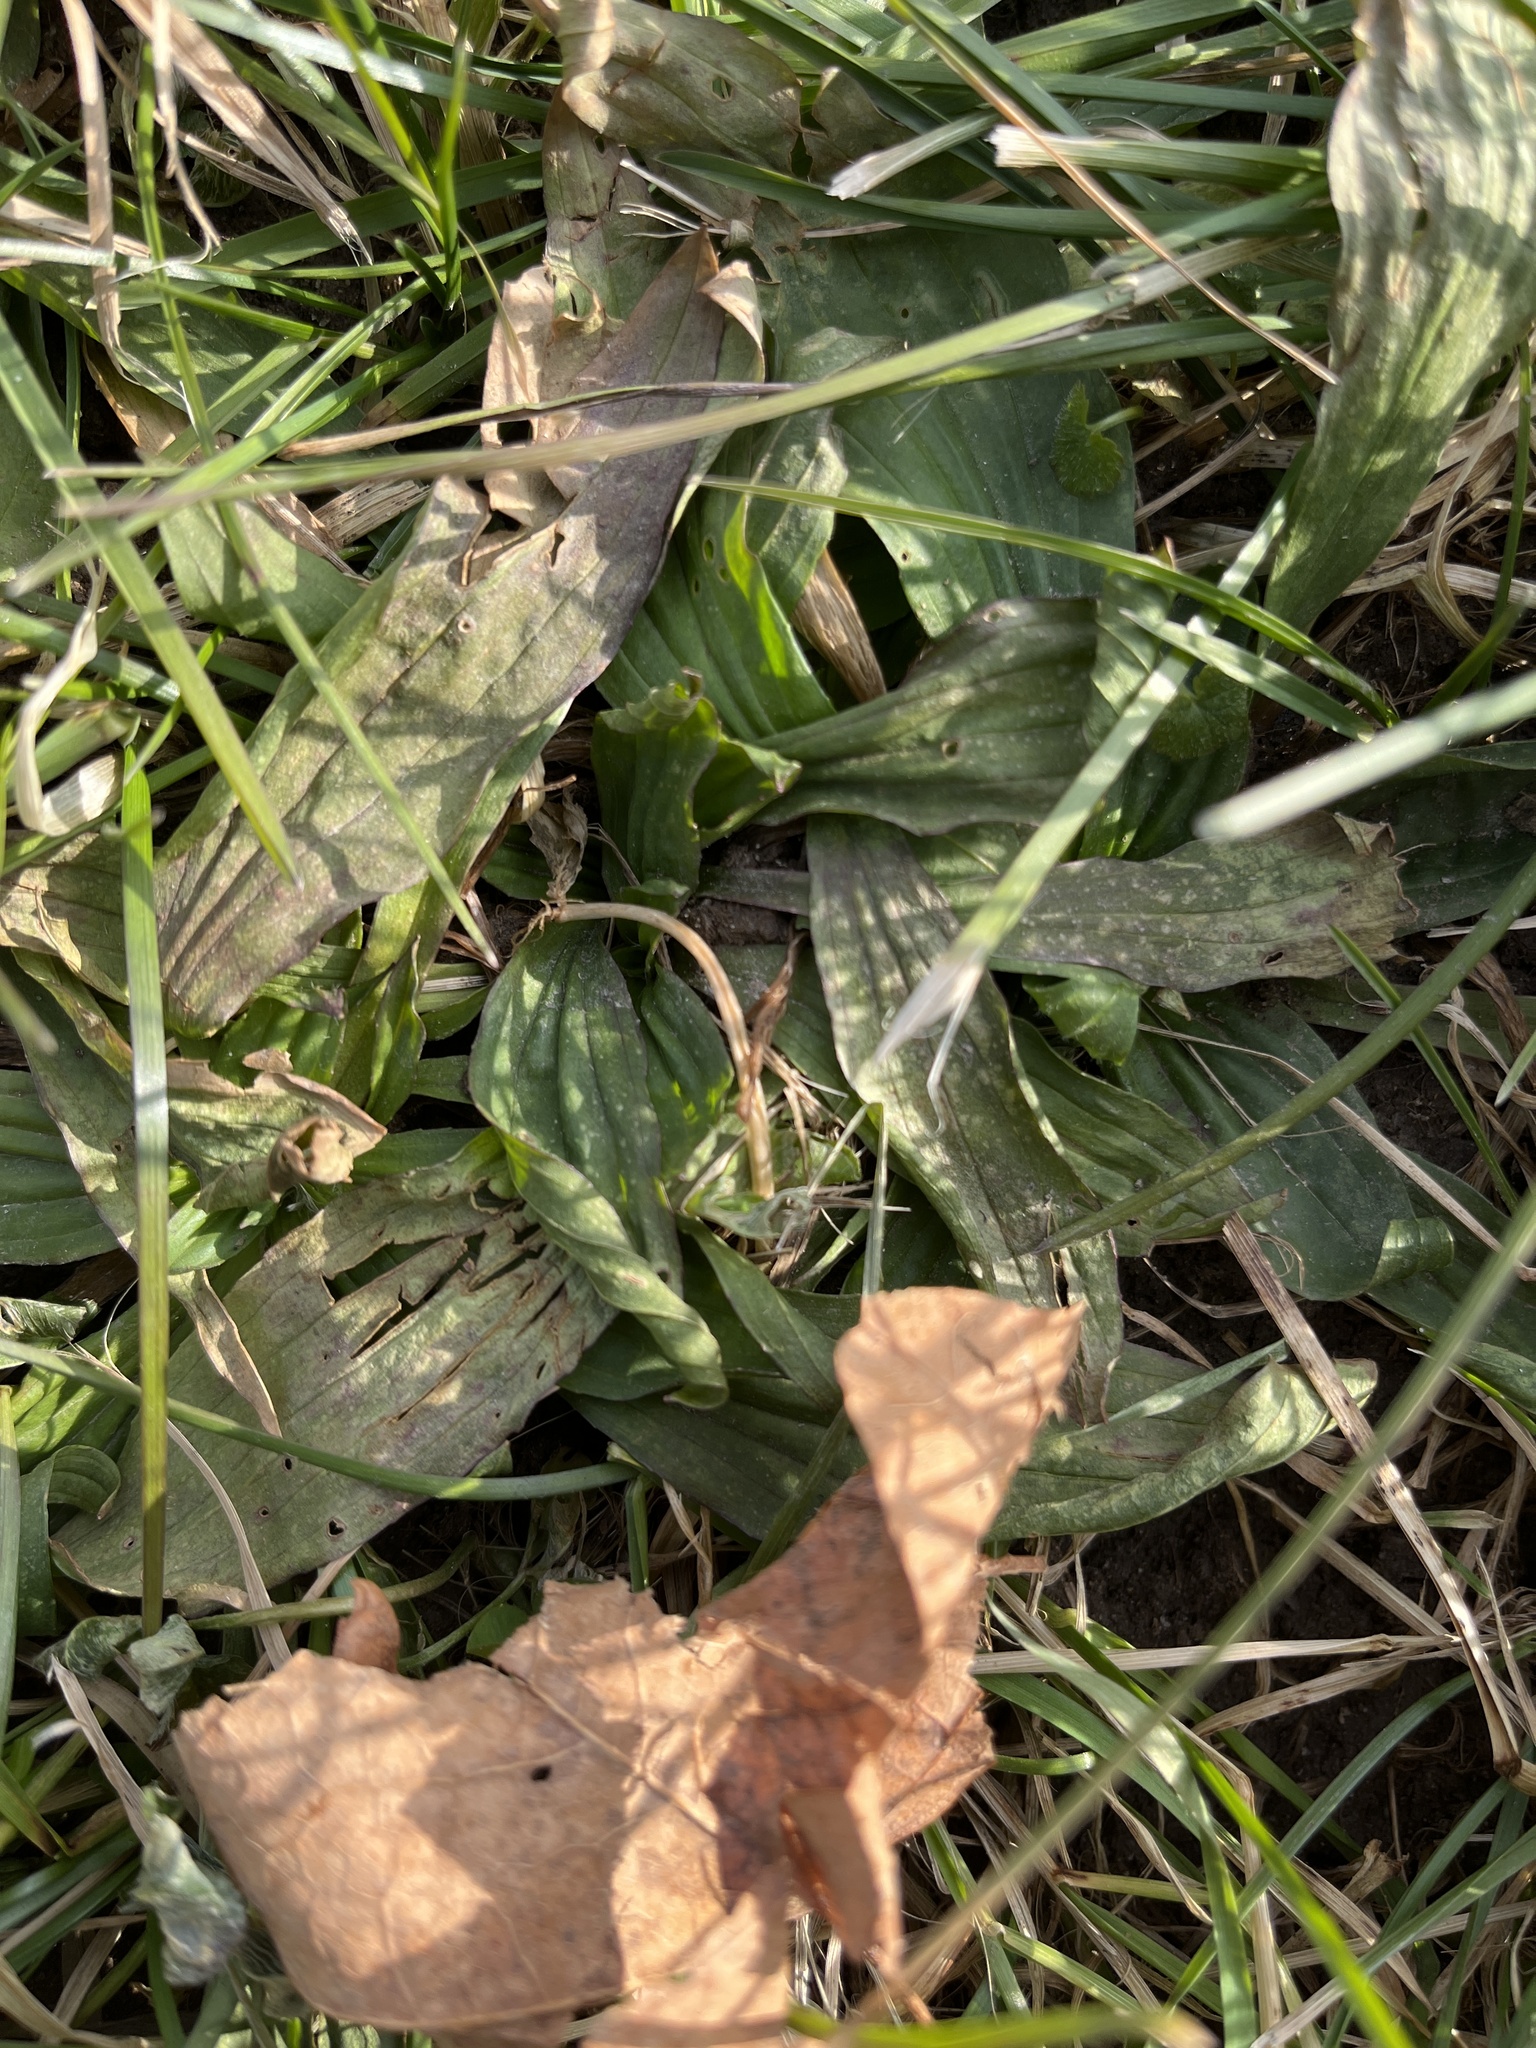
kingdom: Plantae
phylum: Tracheophyta
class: Magnoliopsida
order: Lamiales
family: Plantaginaceae
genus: Plantago
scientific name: Plantago lanceolata
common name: Ribwort plantain
